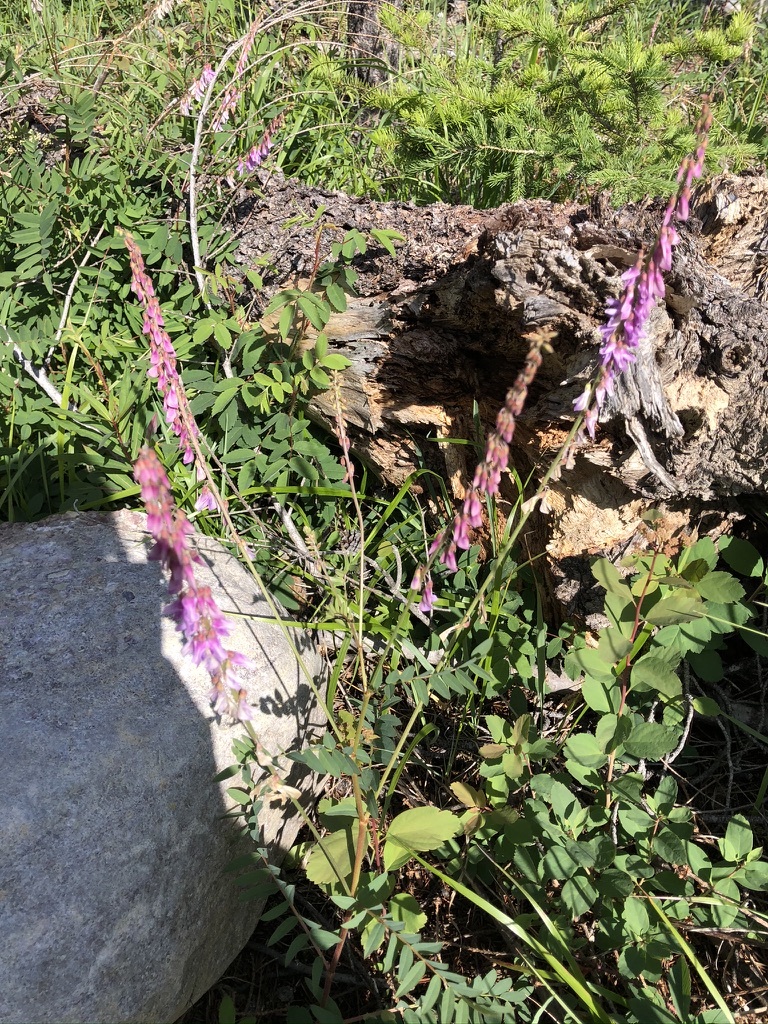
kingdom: Plantae
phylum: Tracheophyta
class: Magnoliopsida
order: Fabales
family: Fabaceae
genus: Hedysarum
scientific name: Hedysarum alpinum
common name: Alpine sweet-vetch
